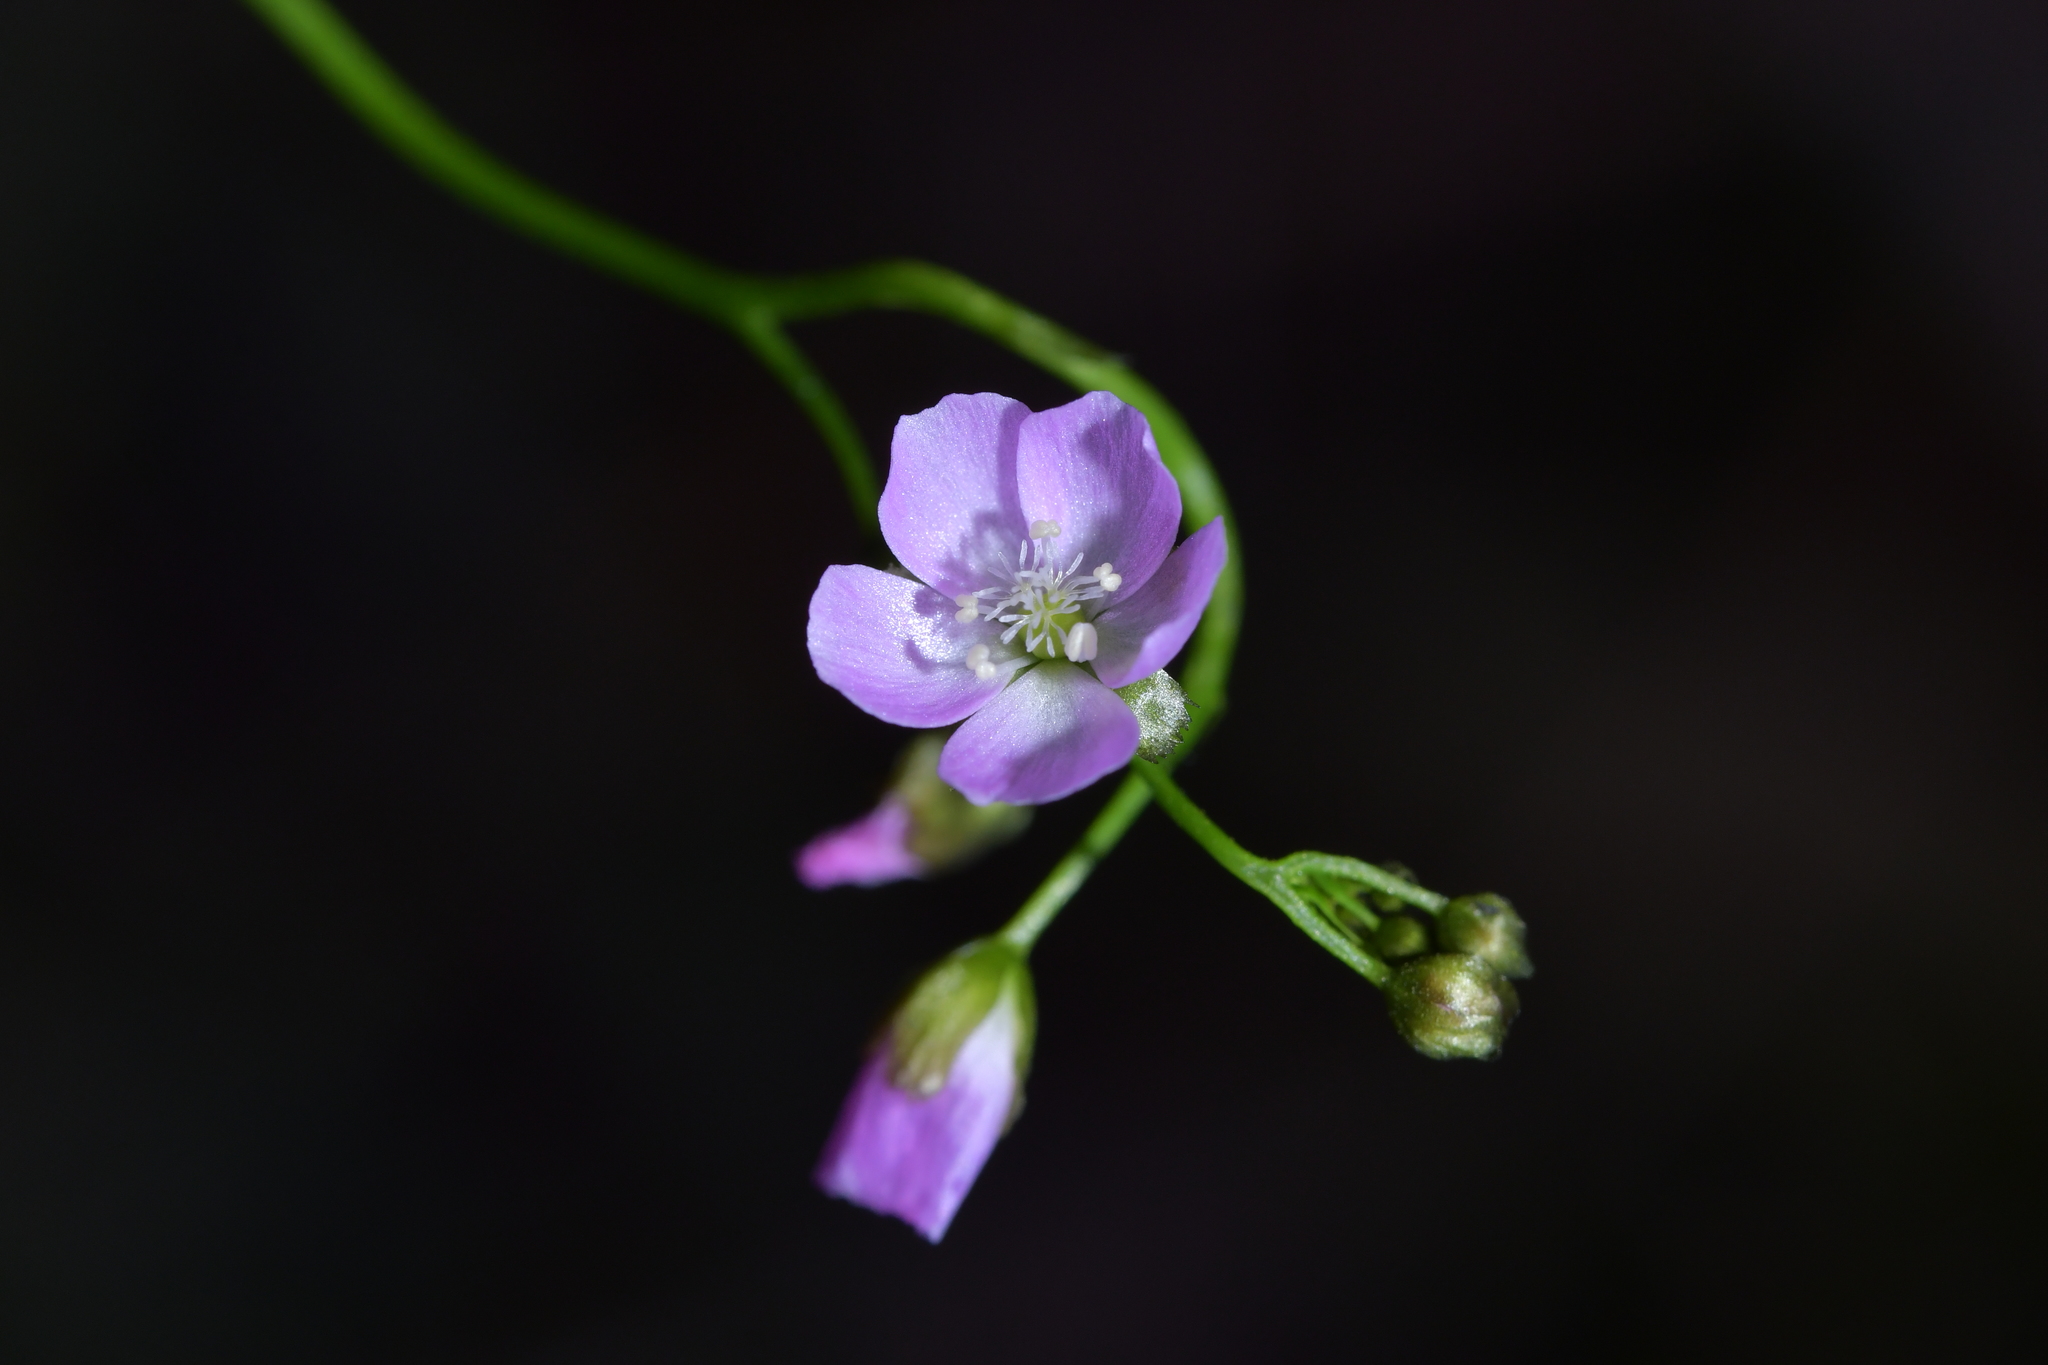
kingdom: Plantae
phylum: Tracheophyta
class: Magnoliopsida
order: Caryophyllales
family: Droseraceae
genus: Drosera
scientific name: Drosera peltata
